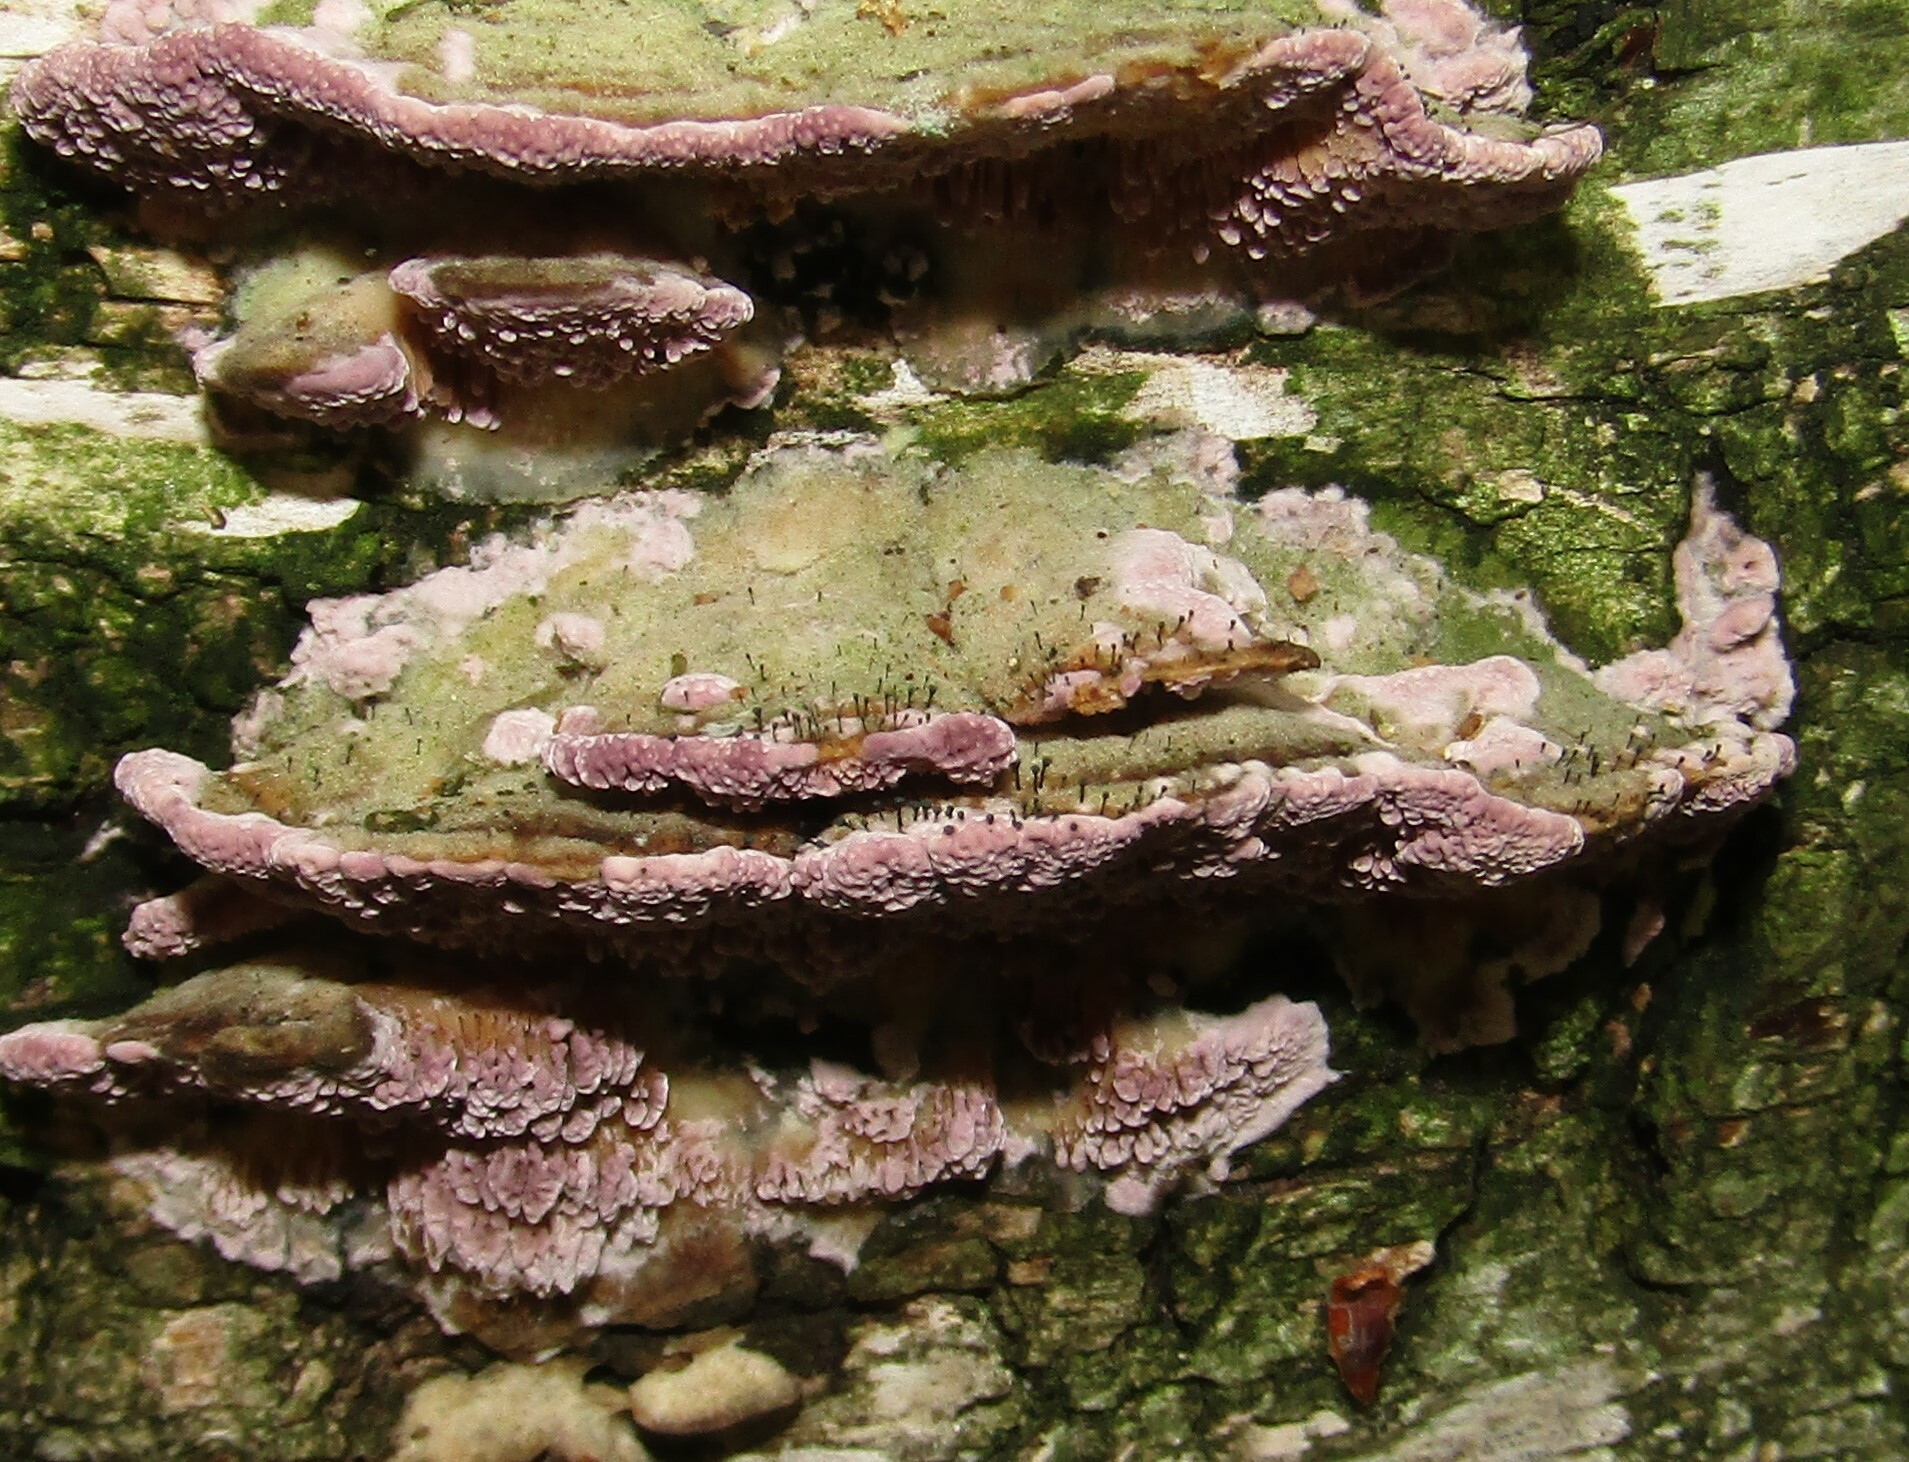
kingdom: Fungi
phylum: Ascomycota
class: Eurotiomycetes
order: Mycocaliciales
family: Mycocaliciaceae
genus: Phaeocalicium
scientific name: Phaeocalicium polyporaeum
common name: Fairy pins
